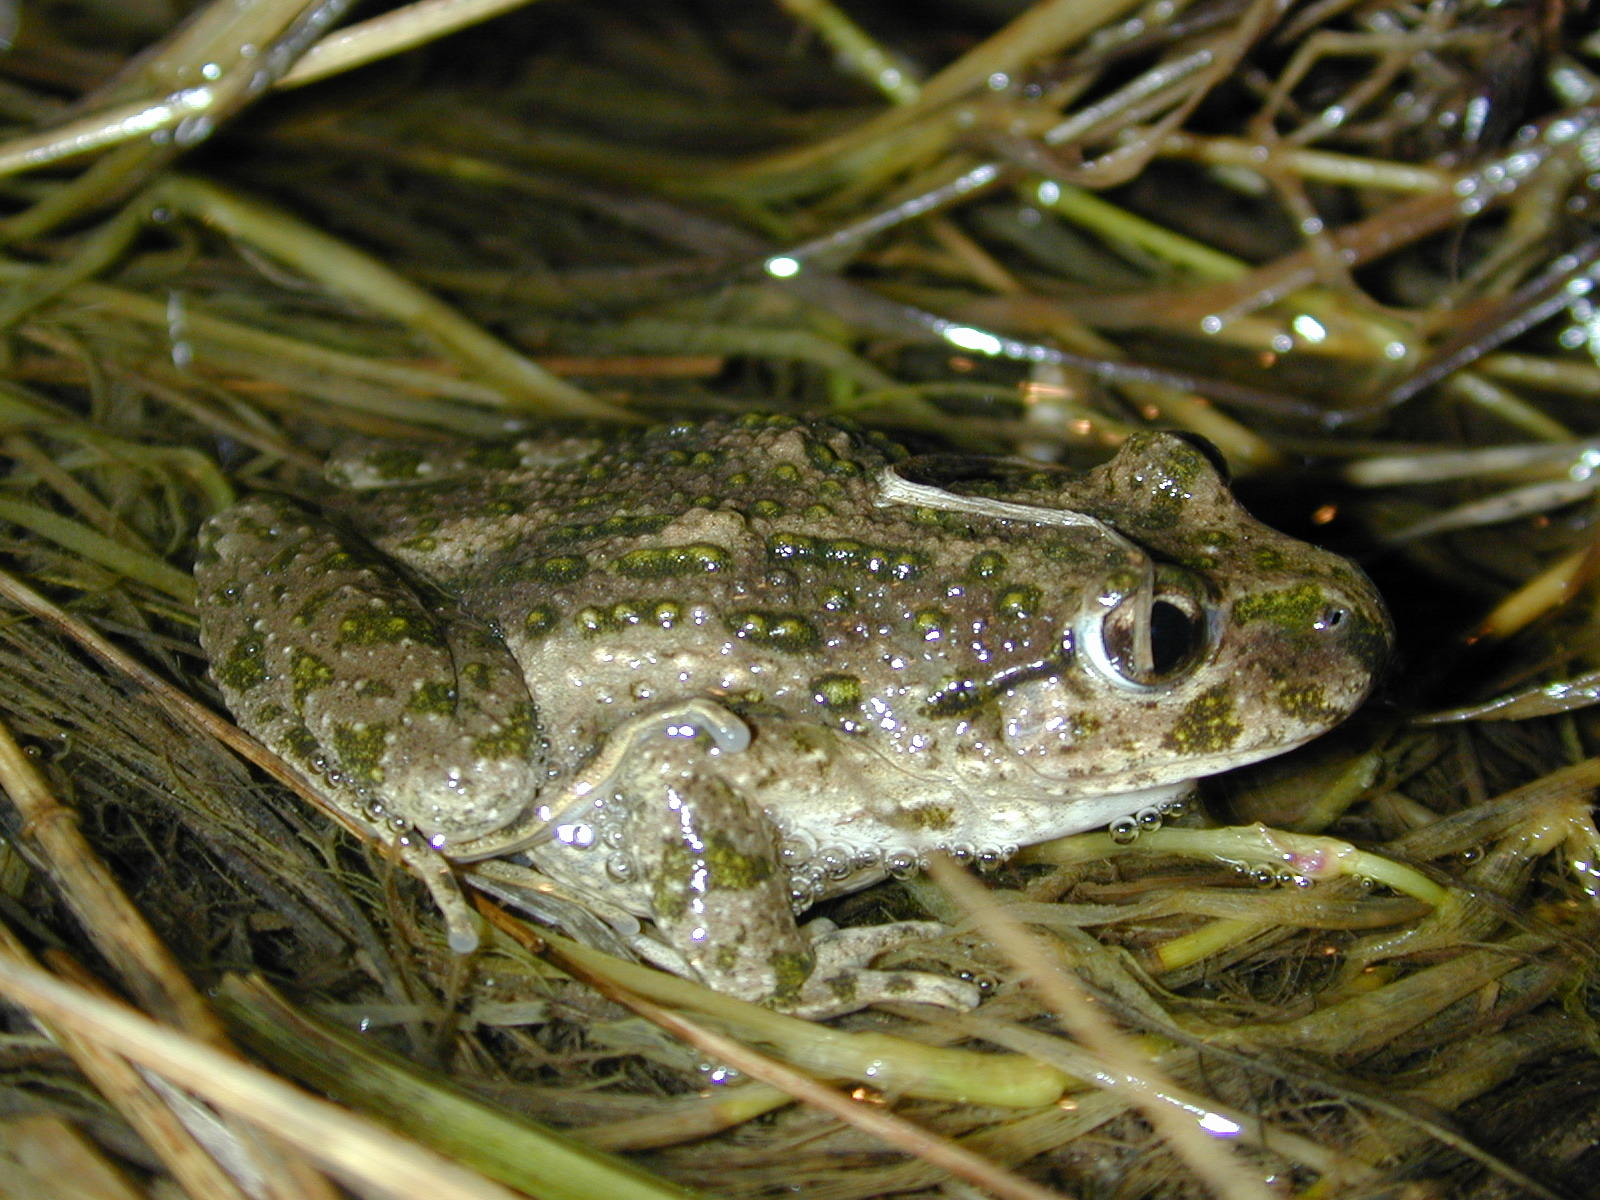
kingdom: Animalia
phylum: Chordata
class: Amphibia
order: Anura
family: Pelodytidae
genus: Pelodytes
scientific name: Pelodytes punctatus
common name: Parsley frog
